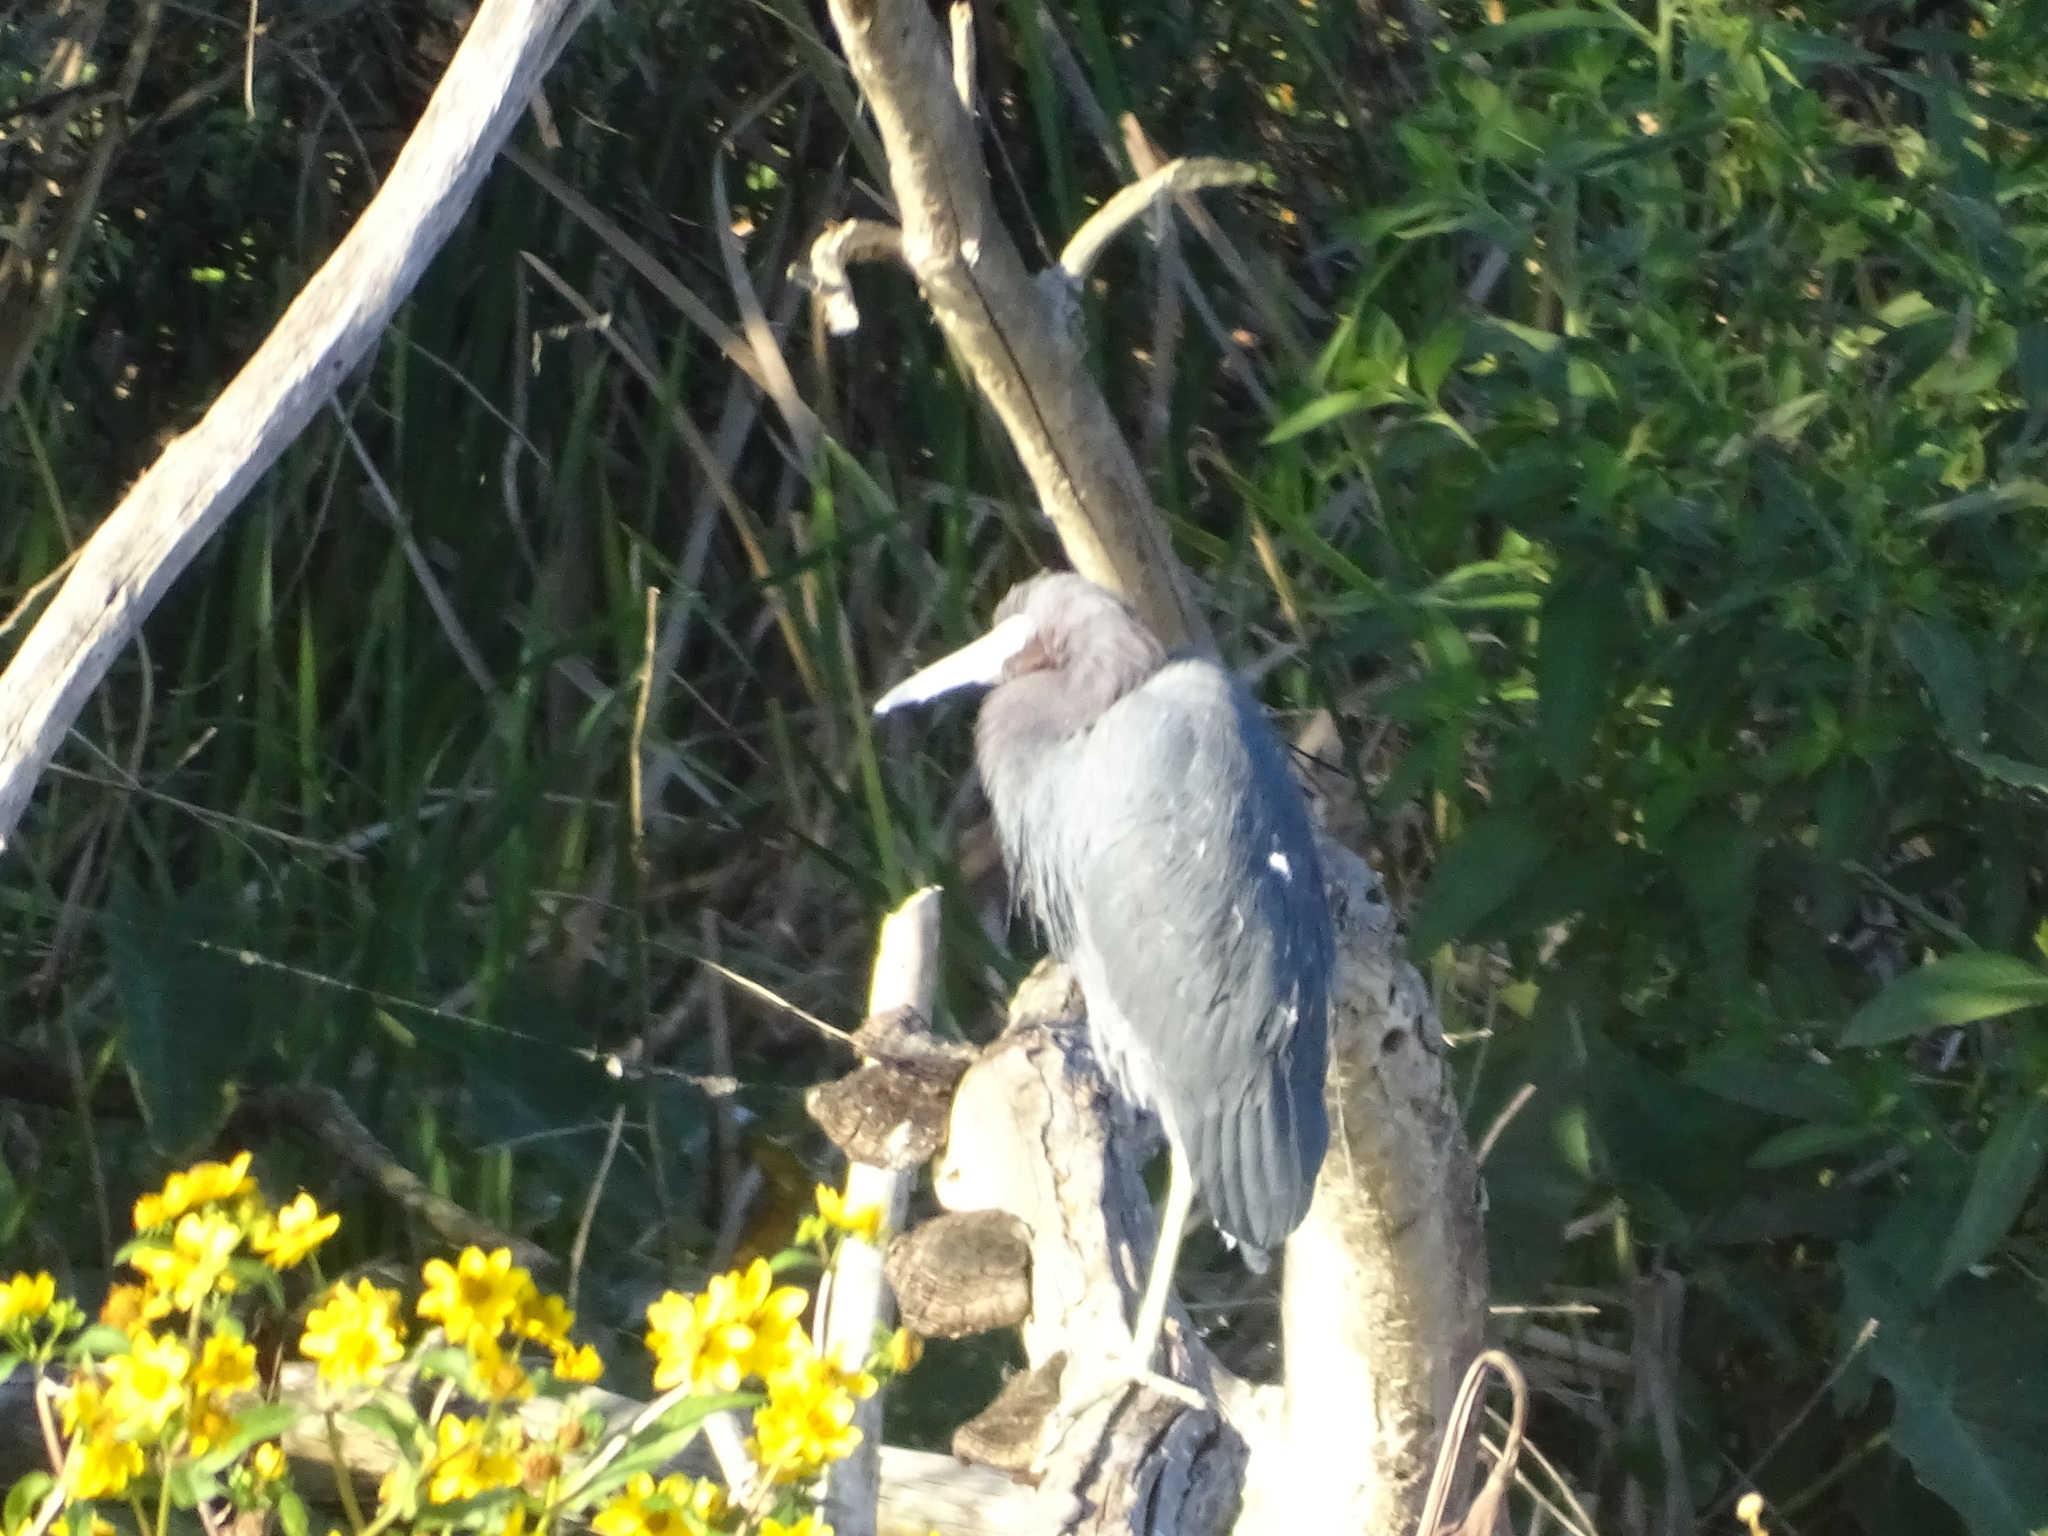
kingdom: Animalia
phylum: Chordata
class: Aves
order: Pelecaniformes
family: Ardeidae
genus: Egretta
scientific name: Egretta caerulea
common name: Little blue heron
